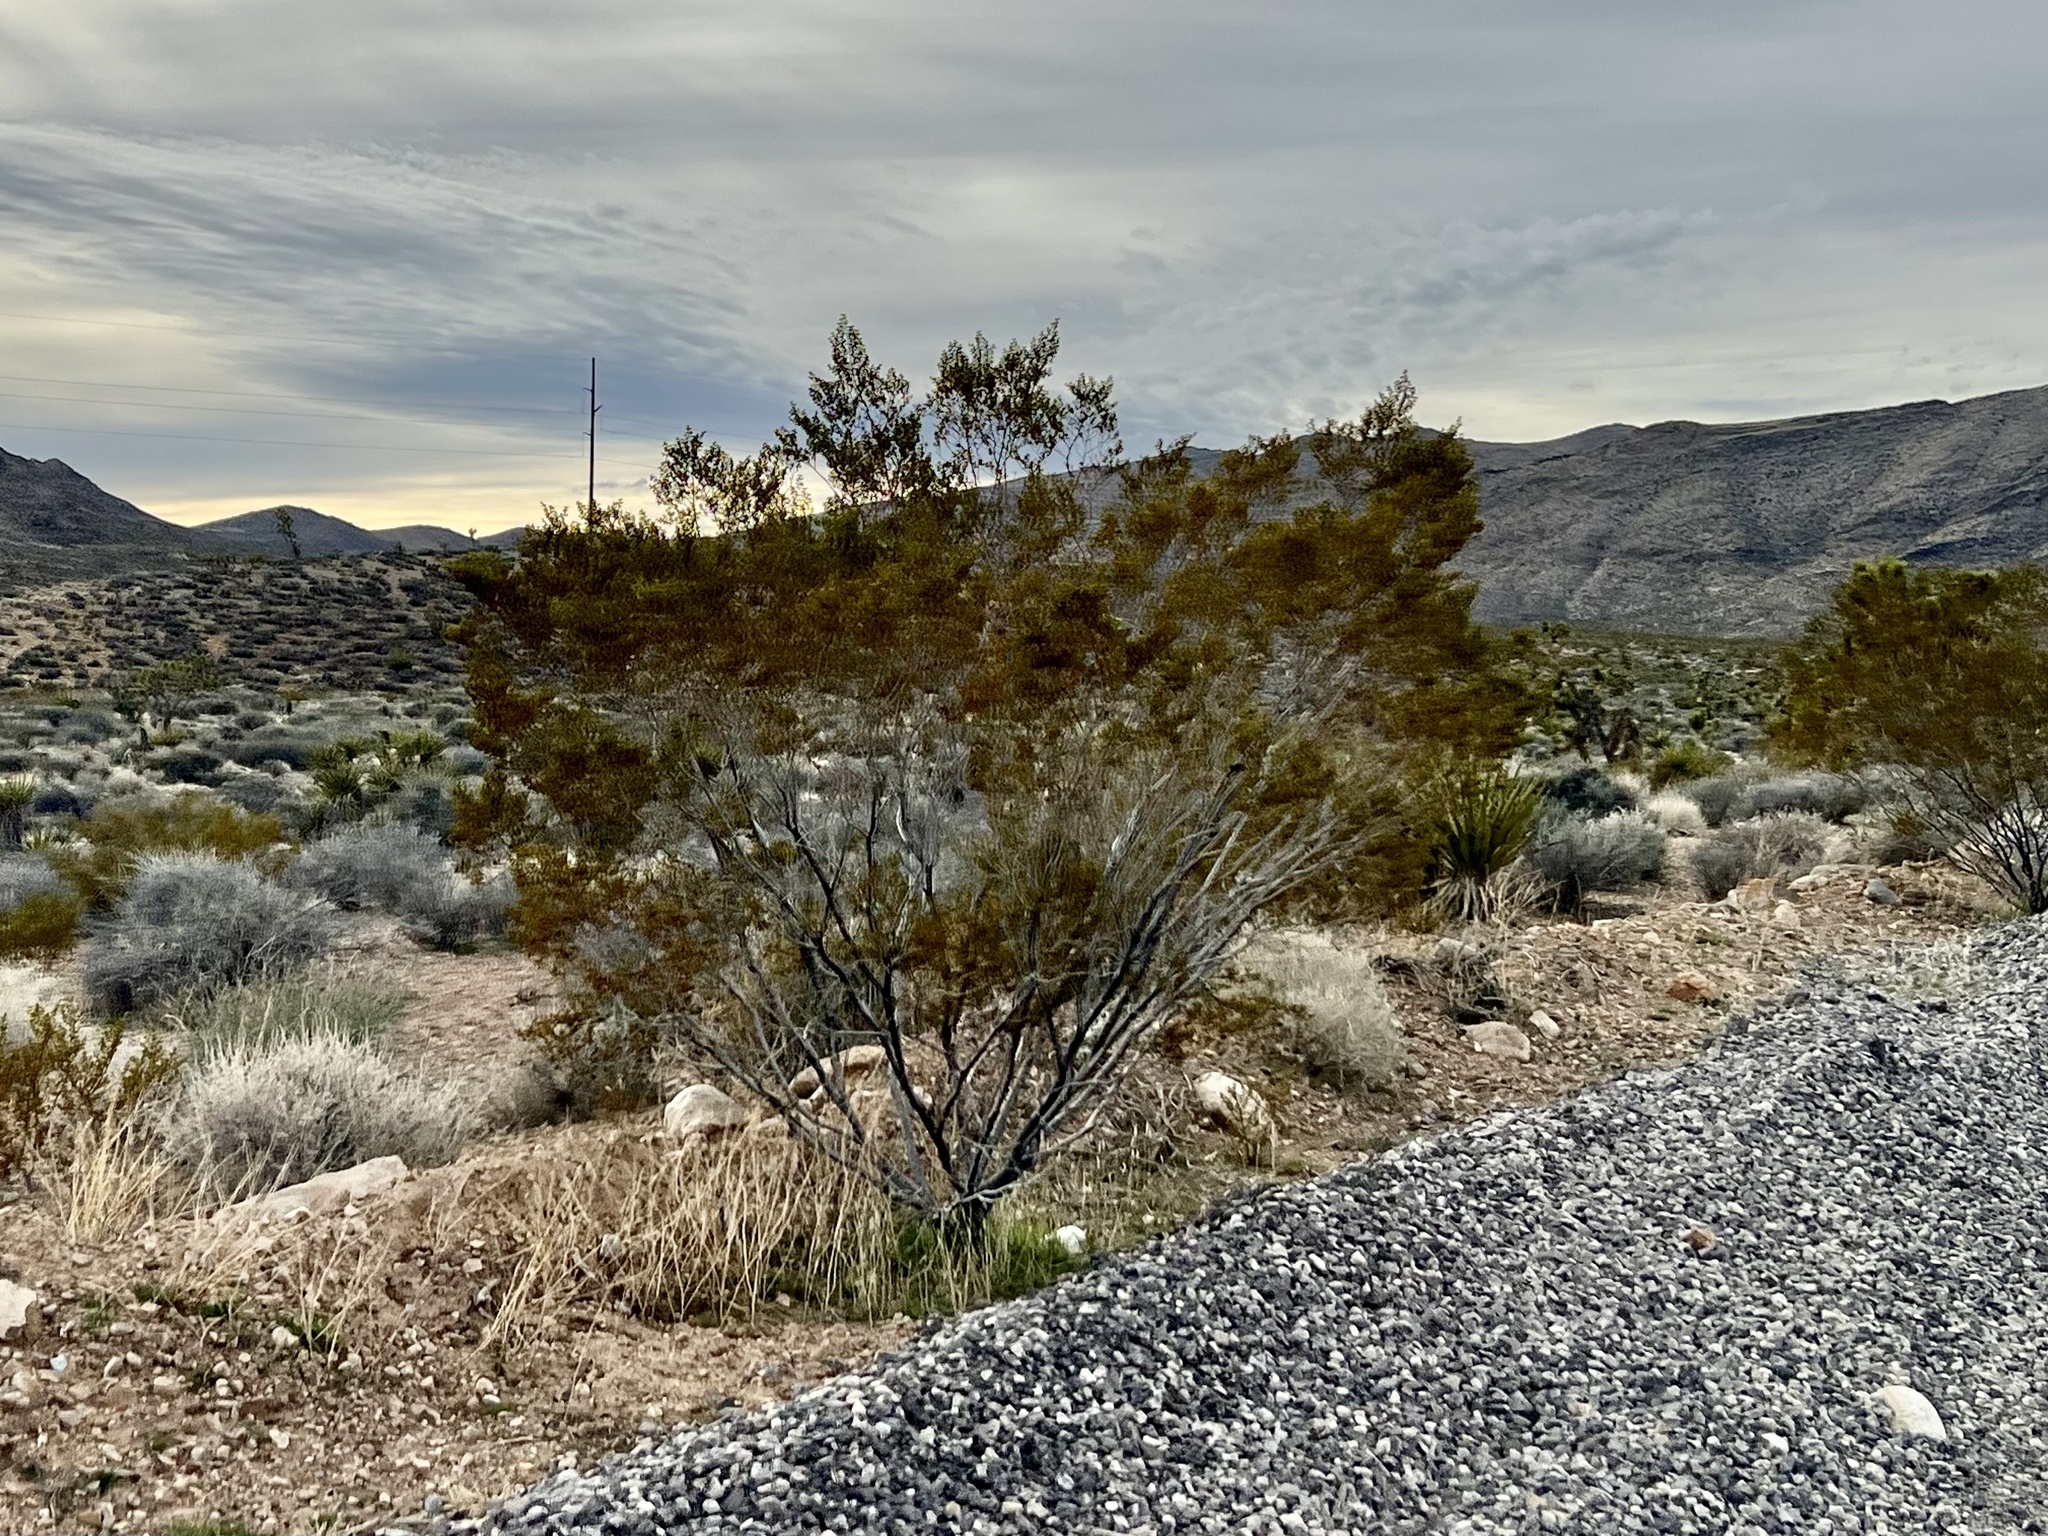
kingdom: Plantae
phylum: Tracheophyta
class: Magnoliopsida
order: Zygophyllales
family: Zygophyllaceae
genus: Larrea
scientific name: Larrea tridentata
